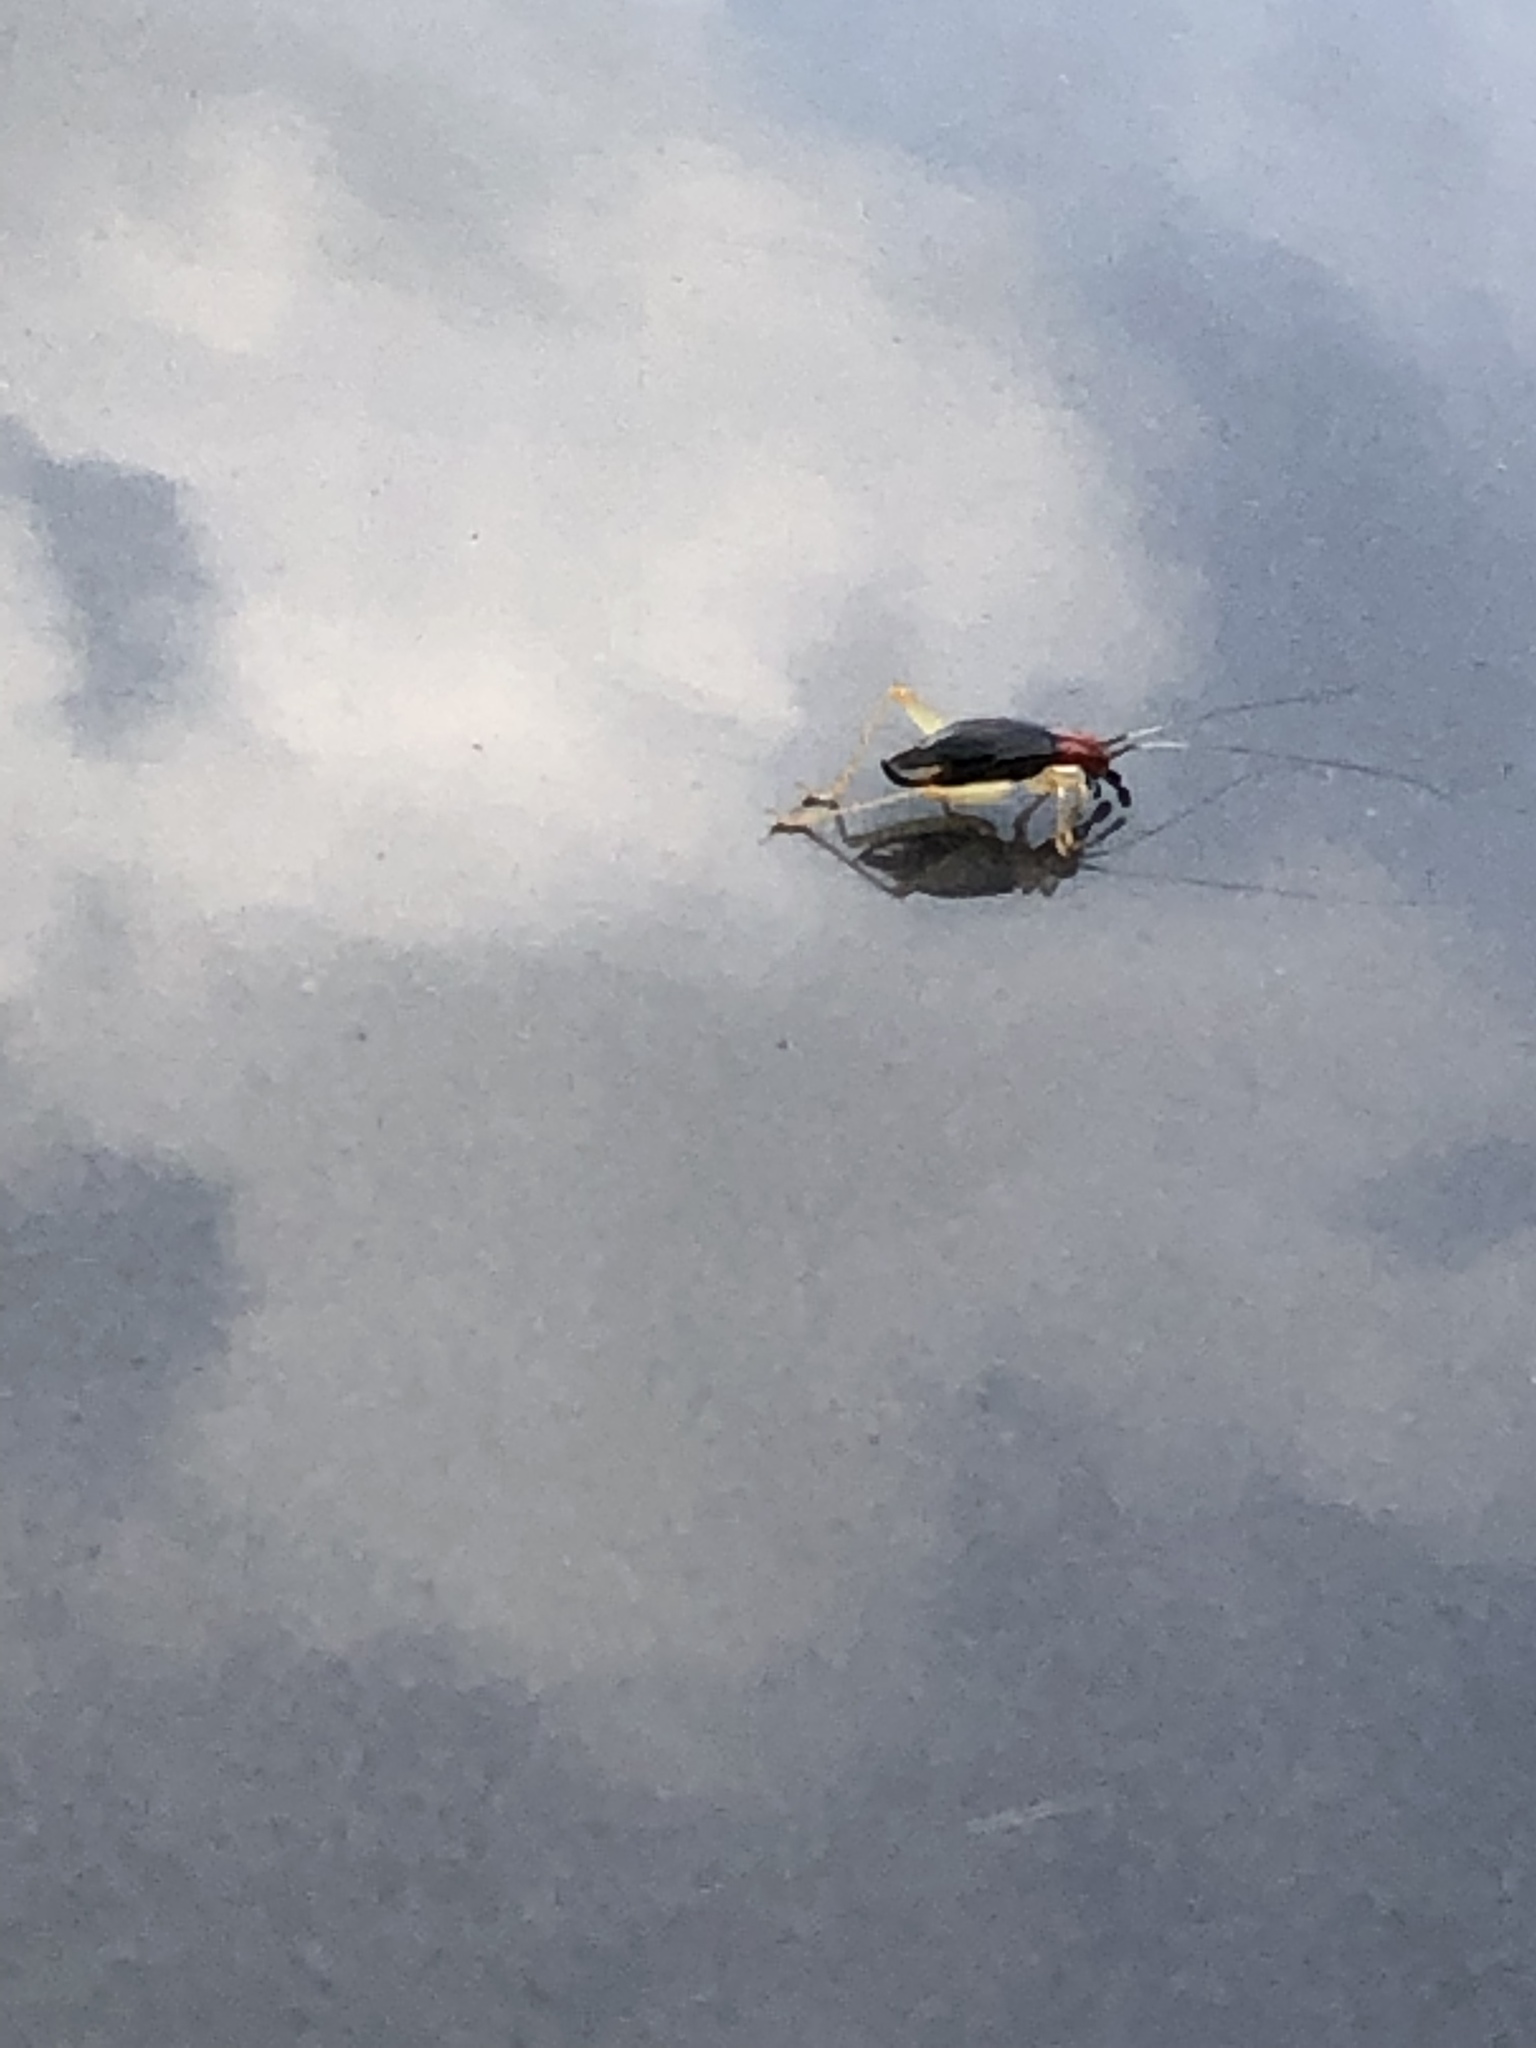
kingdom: Animalia
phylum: Arthropoda
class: Insecta
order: Orthoptera
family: Trigonidiidae
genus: Phyllopalpus
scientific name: Phyllopalpus pulchellus
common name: Handsome trig
